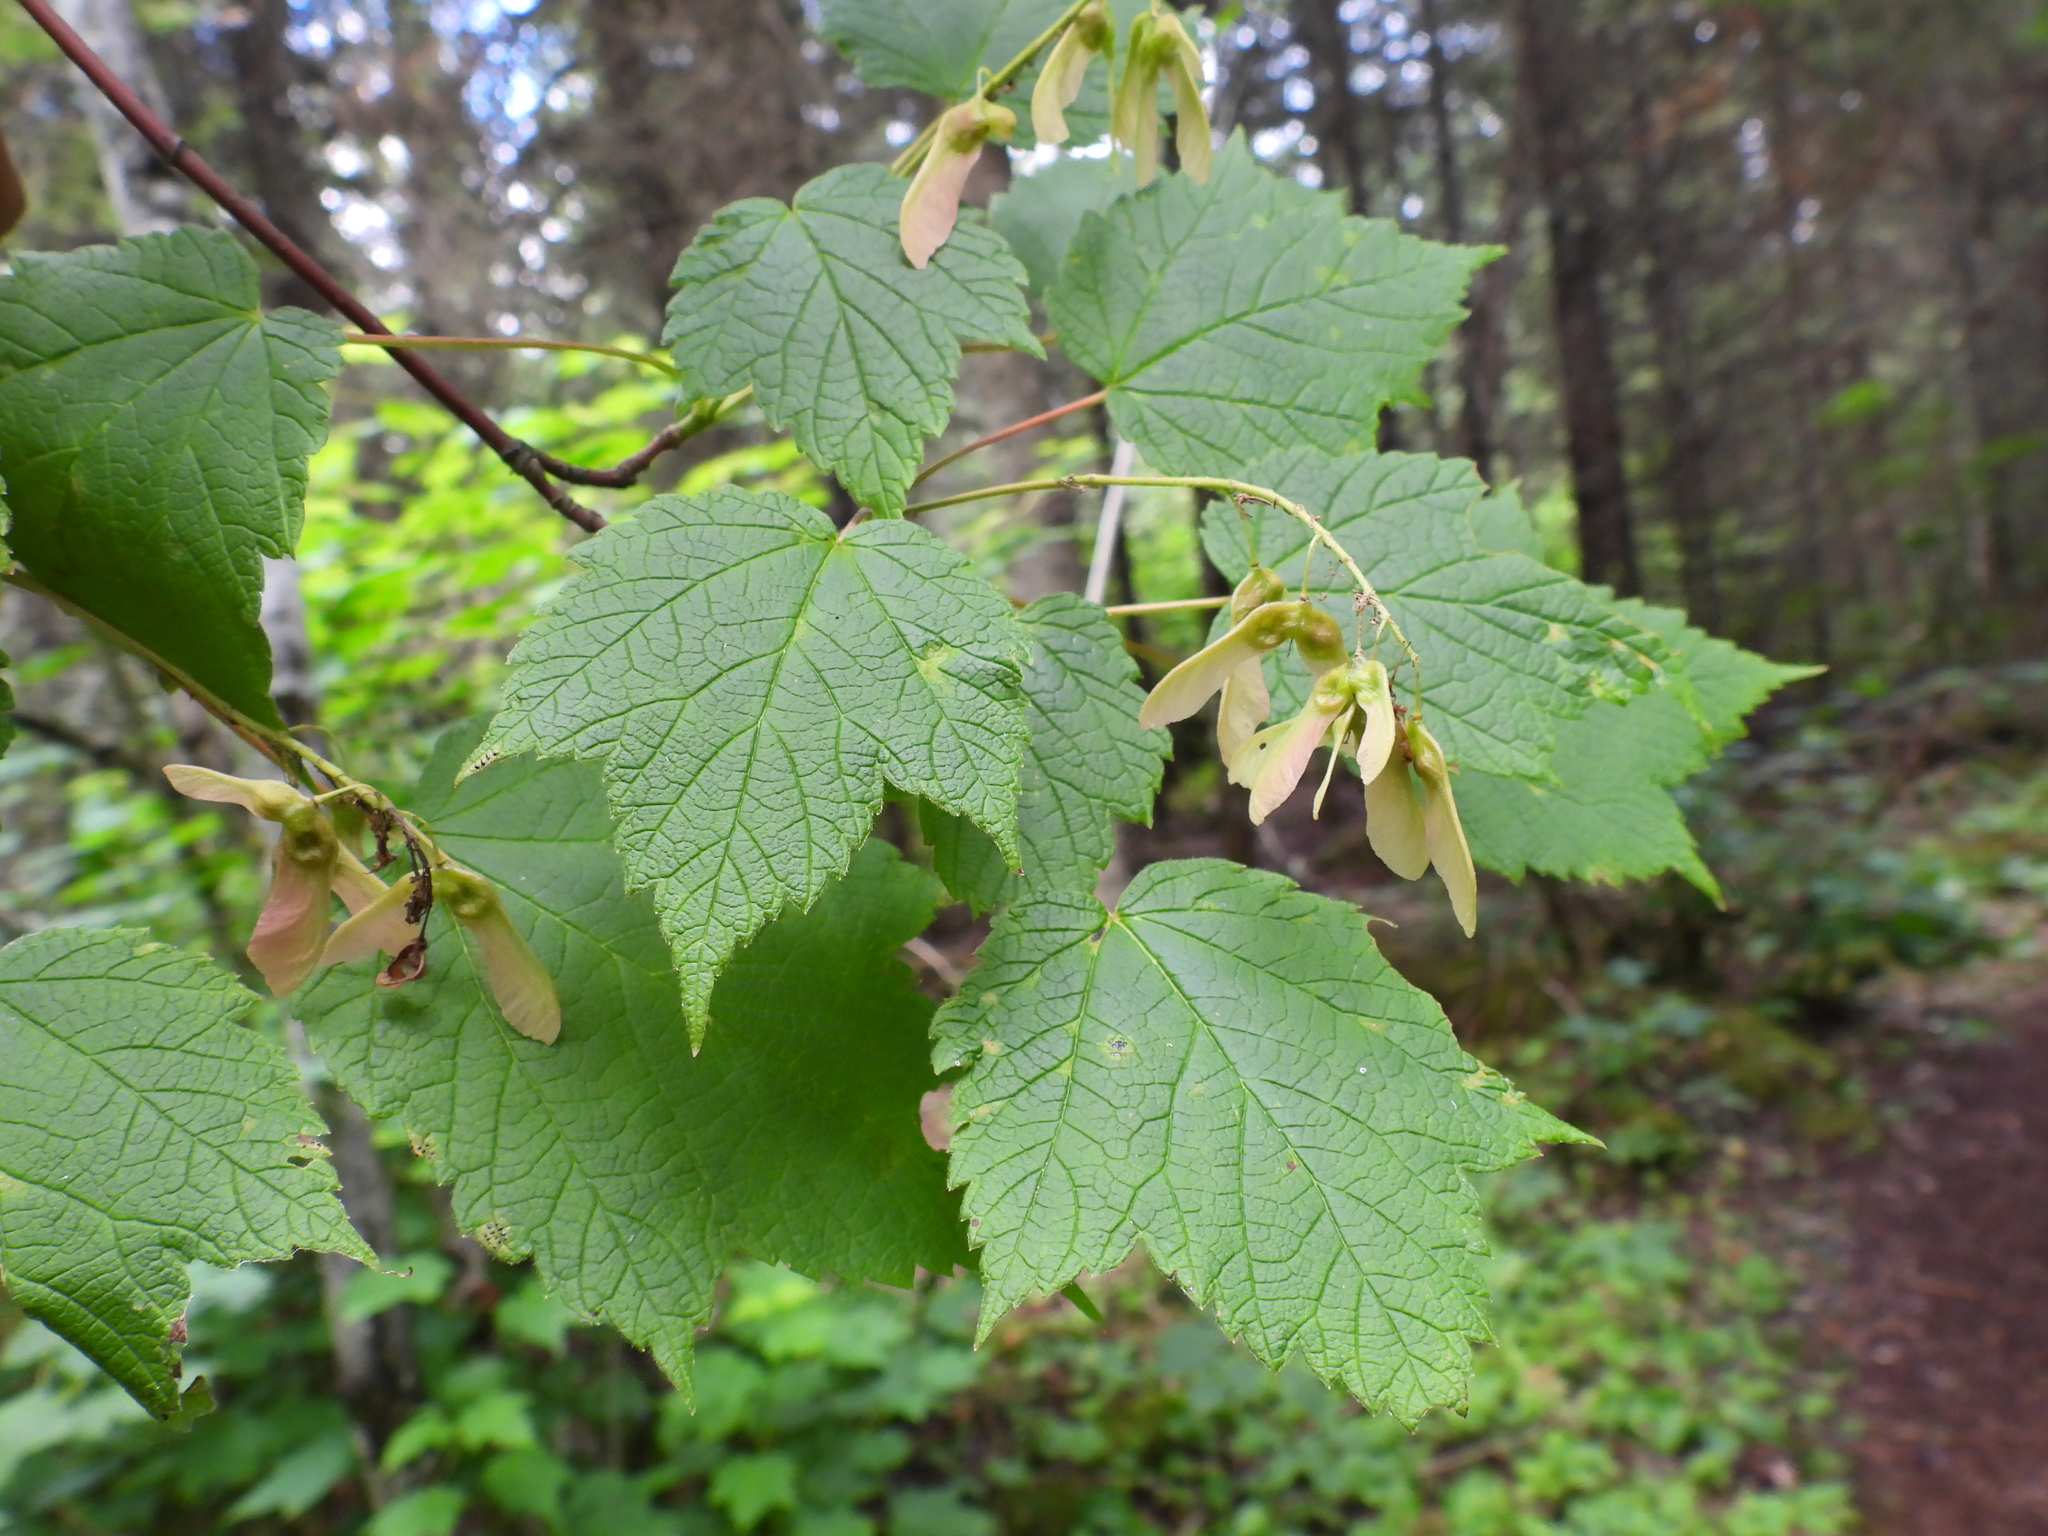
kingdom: Plantae
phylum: Tracheophyta
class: Magnoliopsida
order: Sapindales
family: Sapindaceae
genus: Acer
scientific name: Acer spicatum
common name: Mountain maple
